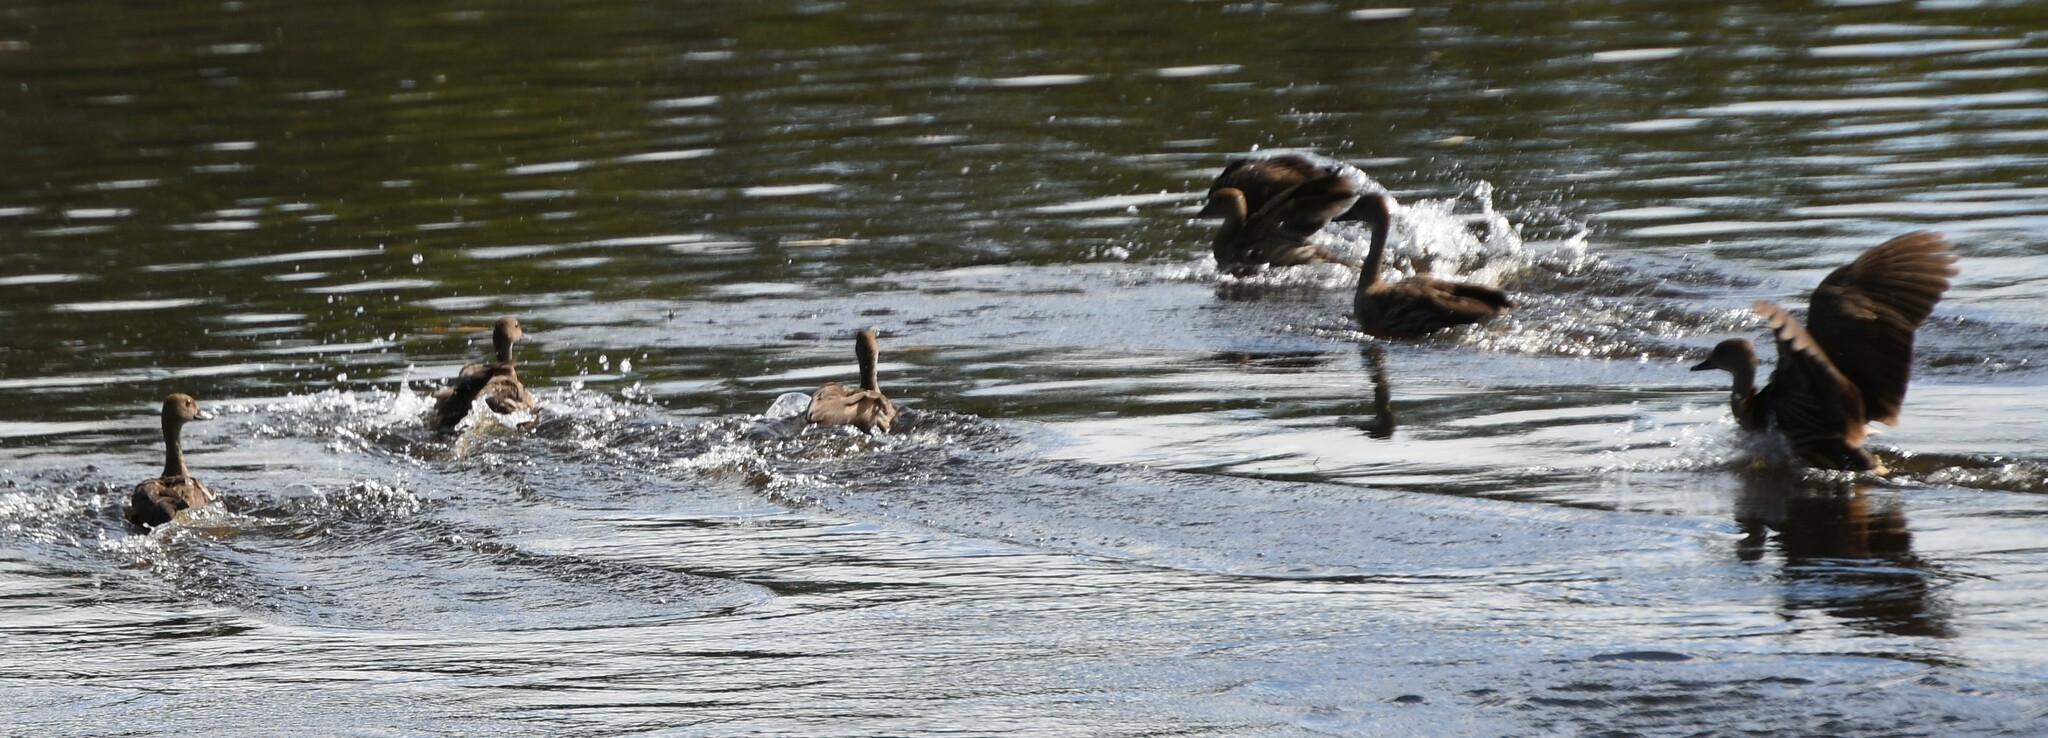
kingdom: Animalia
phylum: Chordata
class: Aves
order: Anseriformes
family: Anatidae
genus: Dendrocygna
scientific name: Dendrocygna eytoni
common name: Plumed whistling-duck
